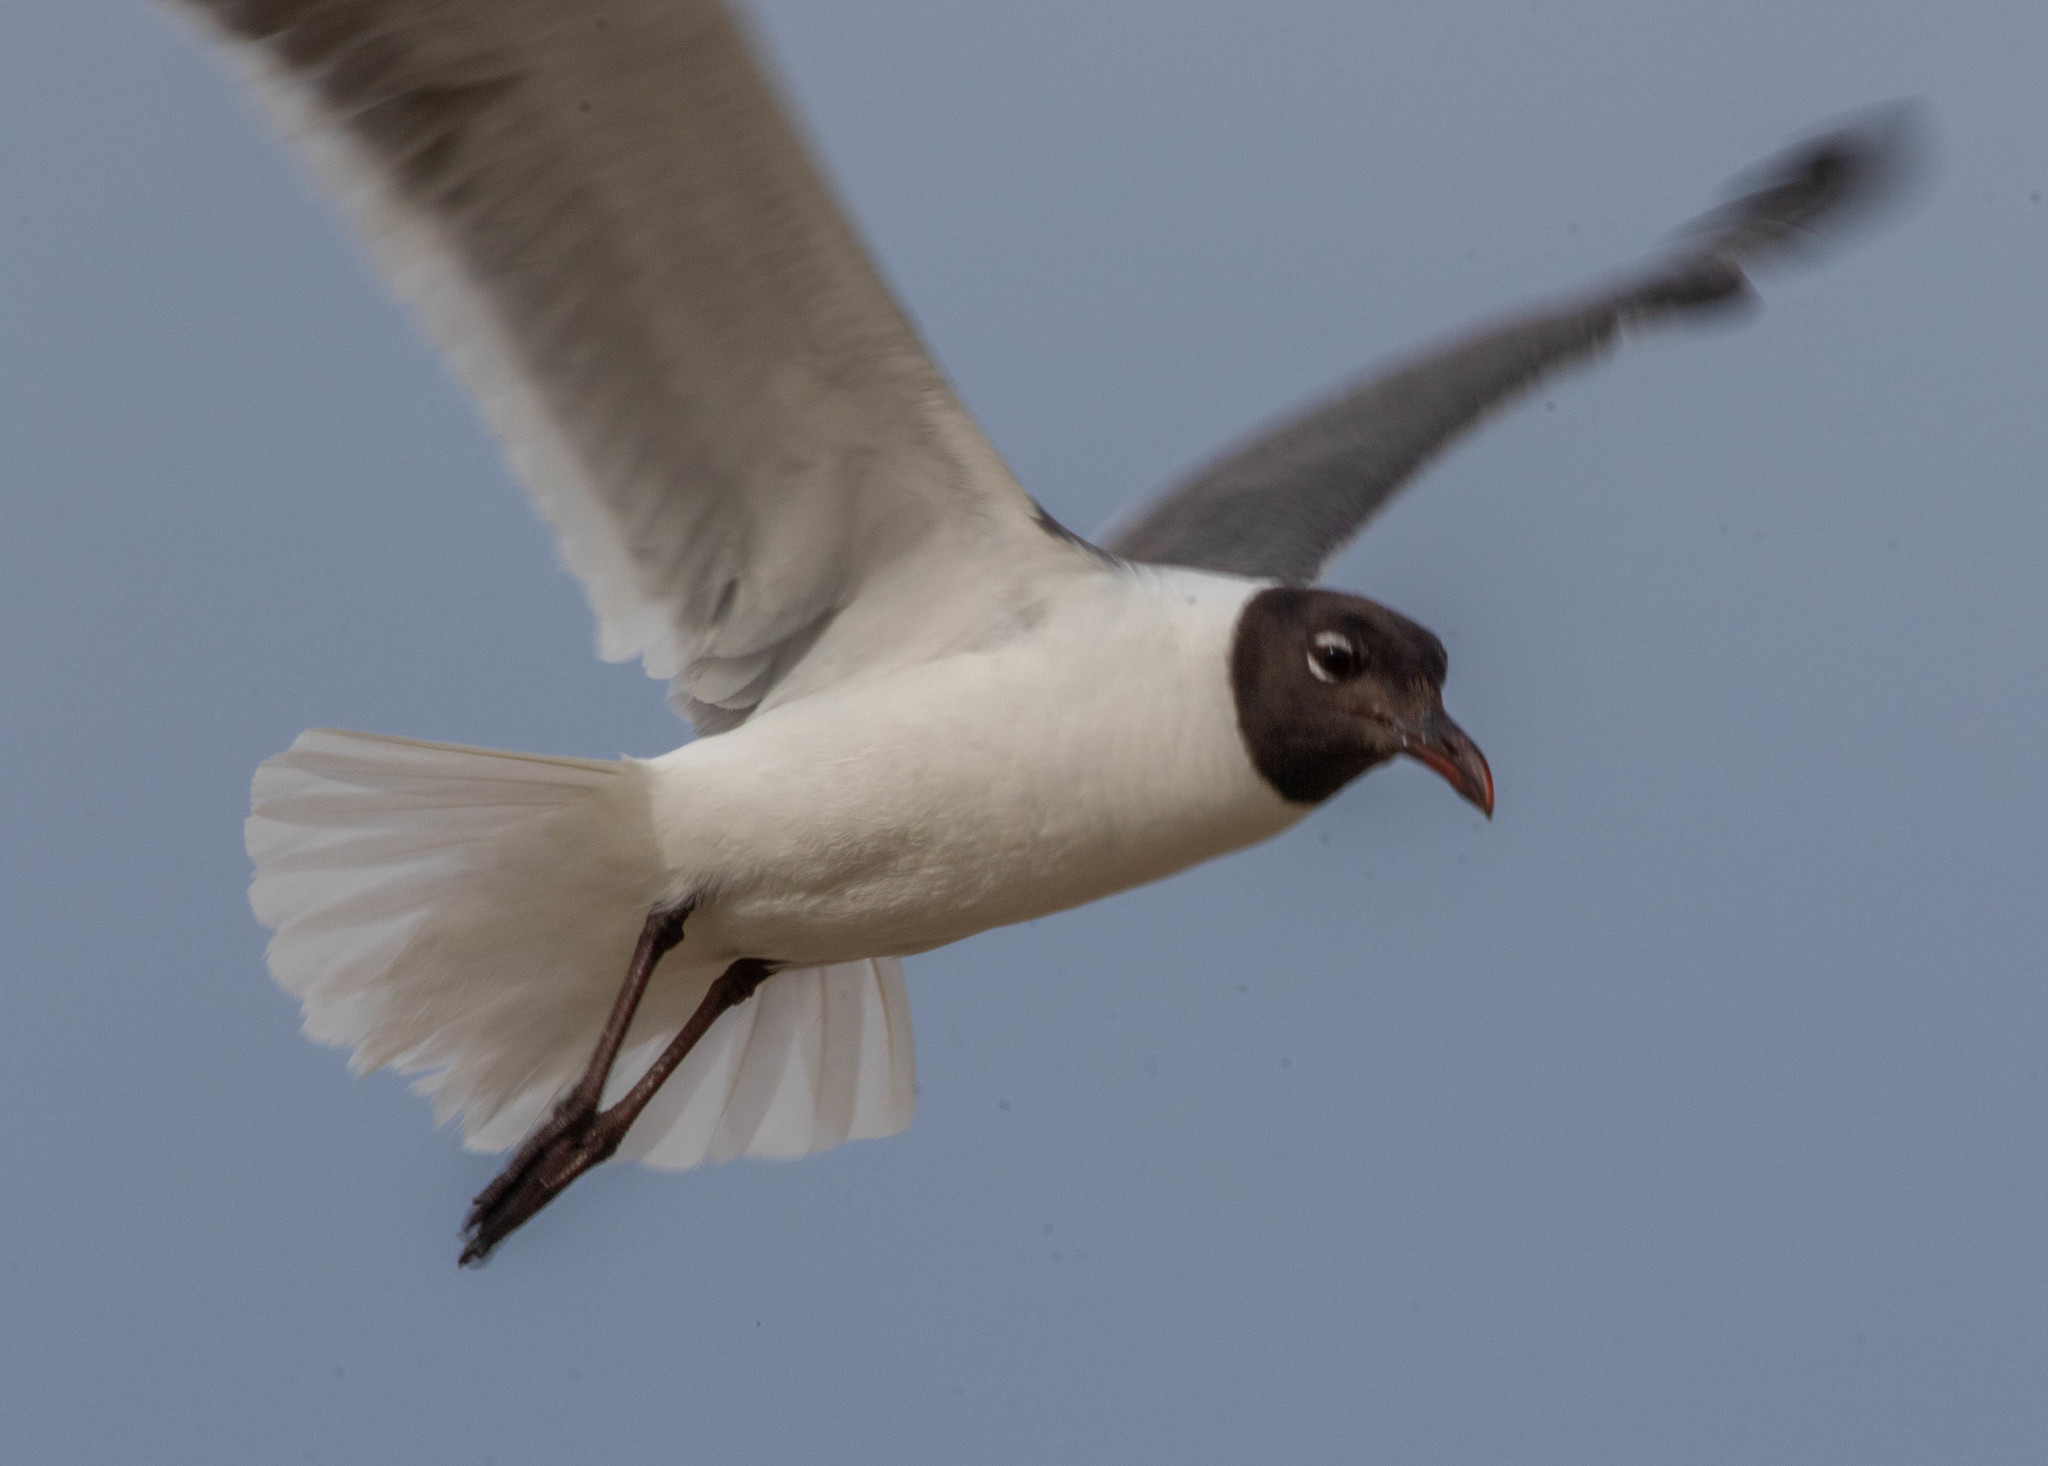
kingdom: Animalia
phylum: Chordata
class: Aves
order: Charadriiformes
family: Laridae
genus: Leucophaeus
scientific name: Leucophaeus atricilla
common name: Laughing gull
